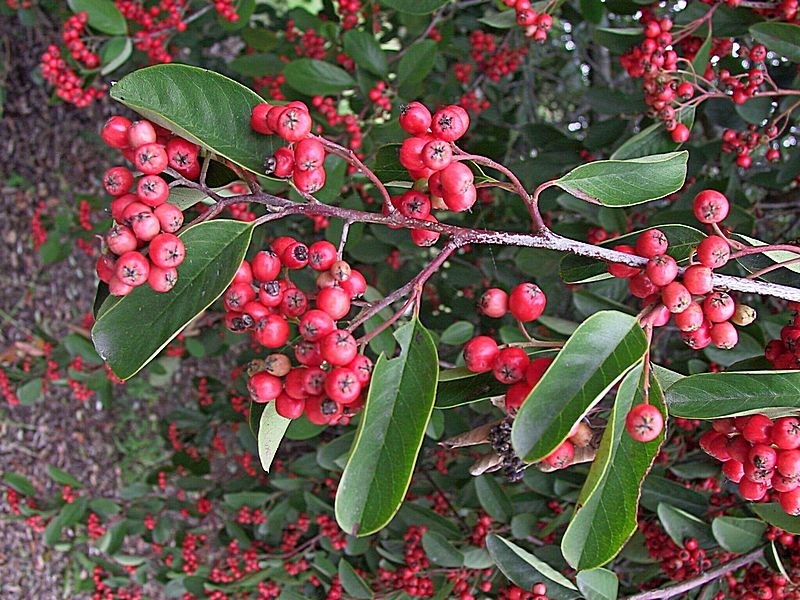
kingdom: Plantae
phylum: Tracheophyta
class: Magnoliopsida
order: Rosales
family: Rosaceae
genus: Cotoneaster
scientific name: Cotoneaster glaucophyllus
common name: Glaucous cotoneaster
